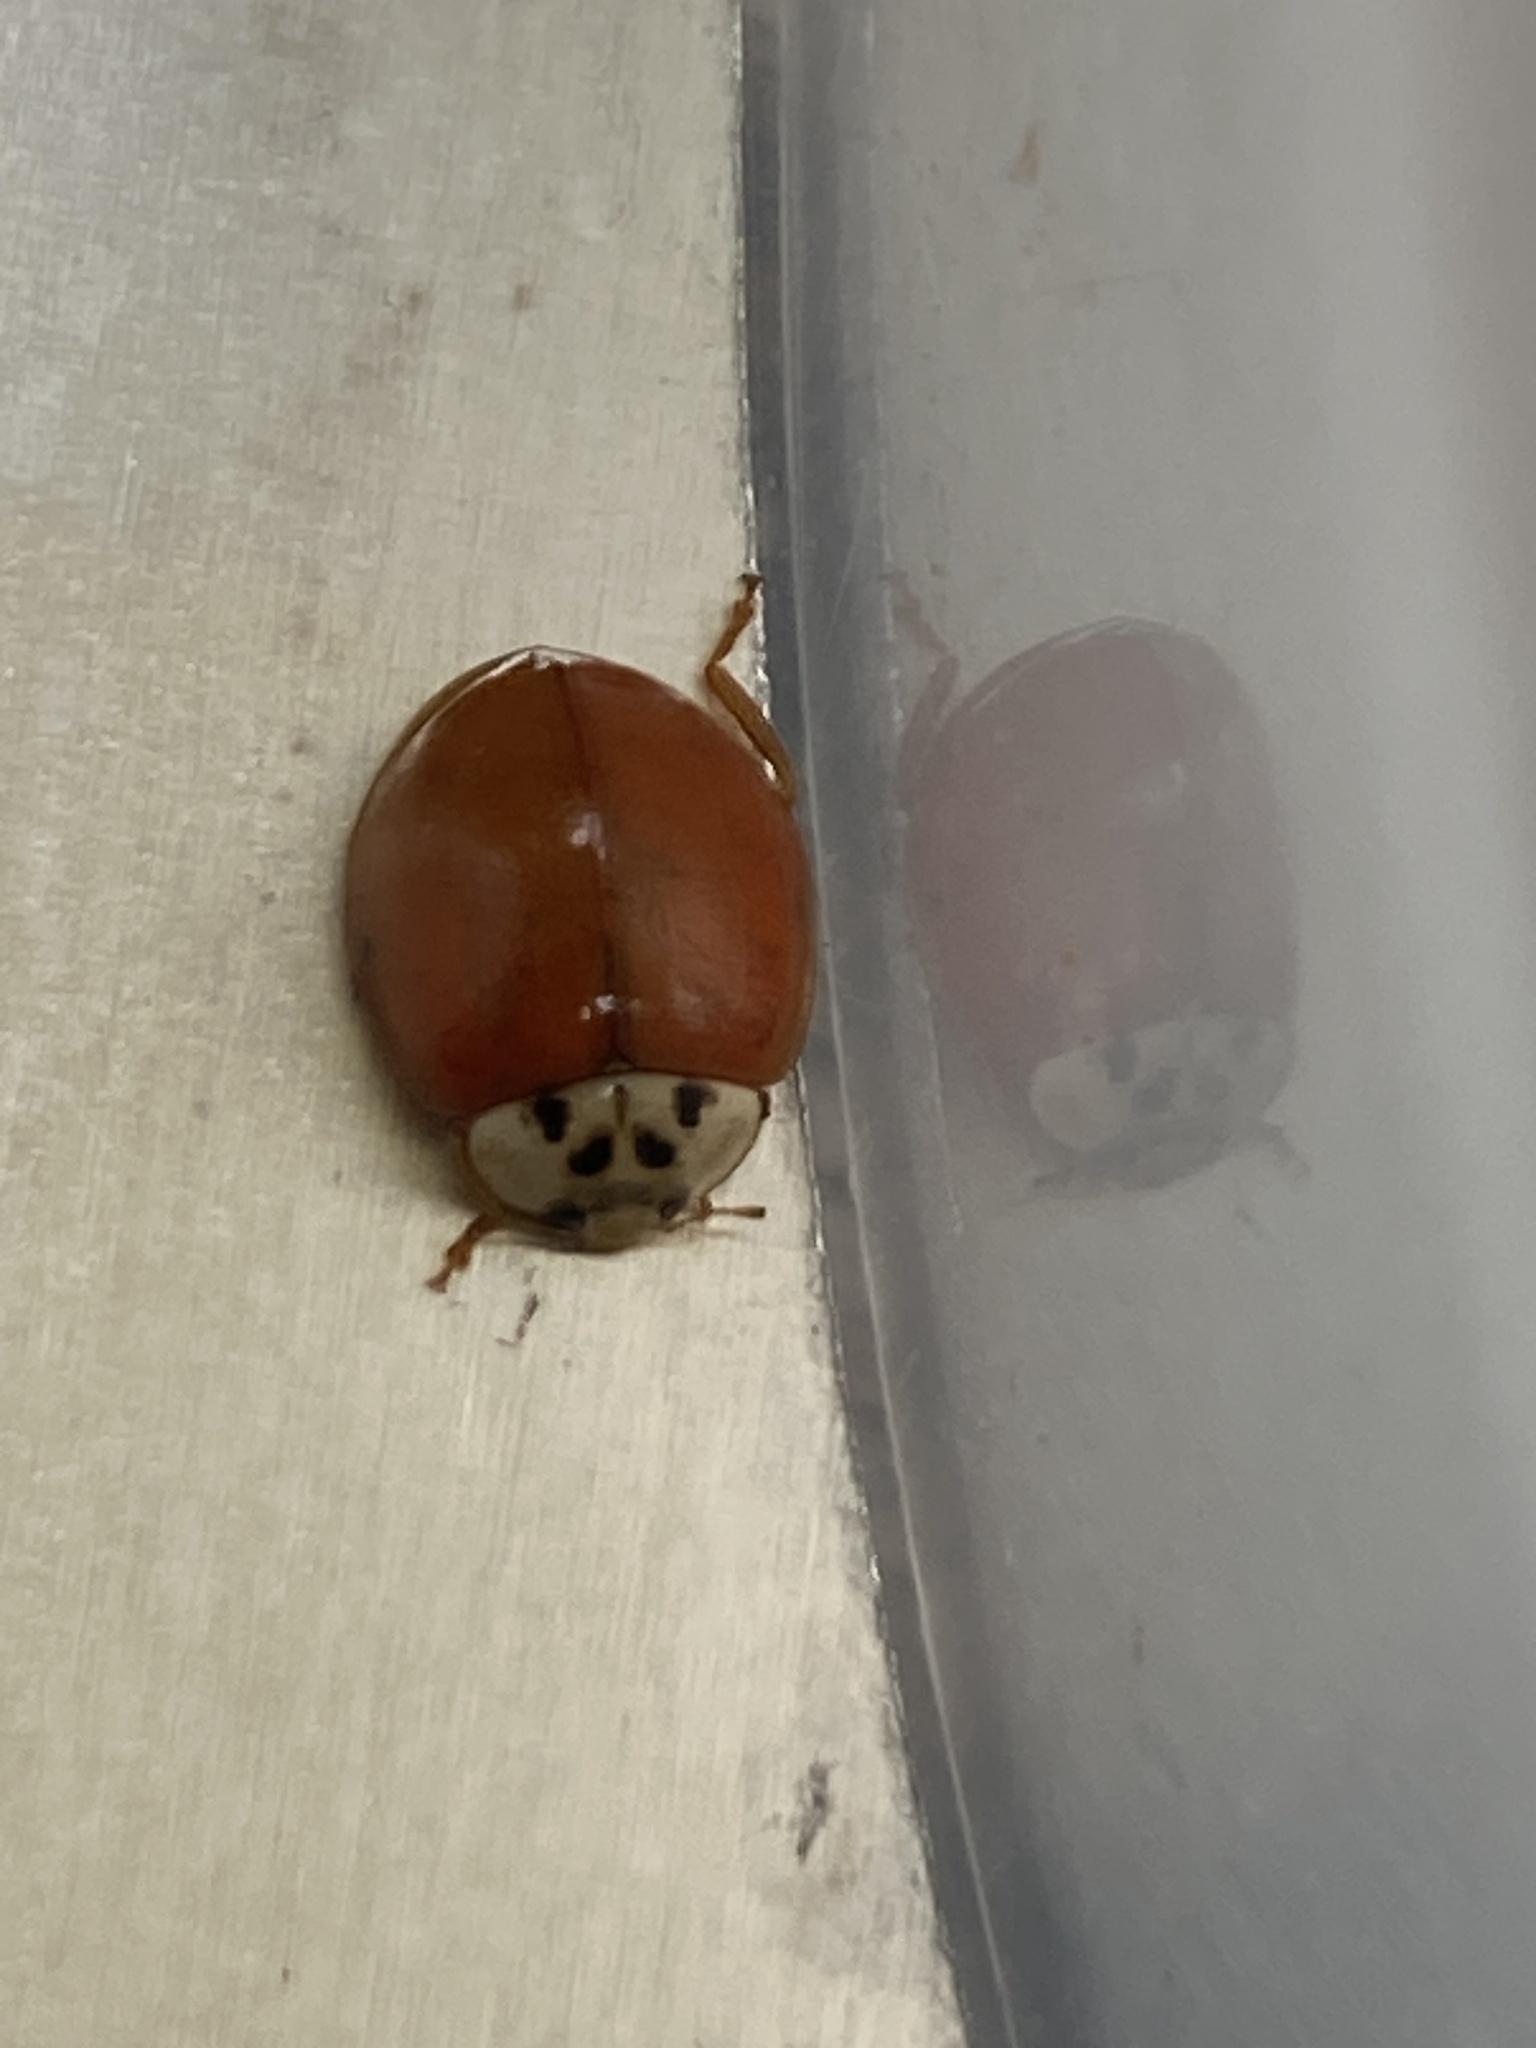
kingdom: Animalia
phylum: Arthropoda
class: Insecta
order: Coleoptera
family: Coccinellidae
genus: Harmonia
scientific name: Harmonia axyridis
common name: Harlequin ladybird
